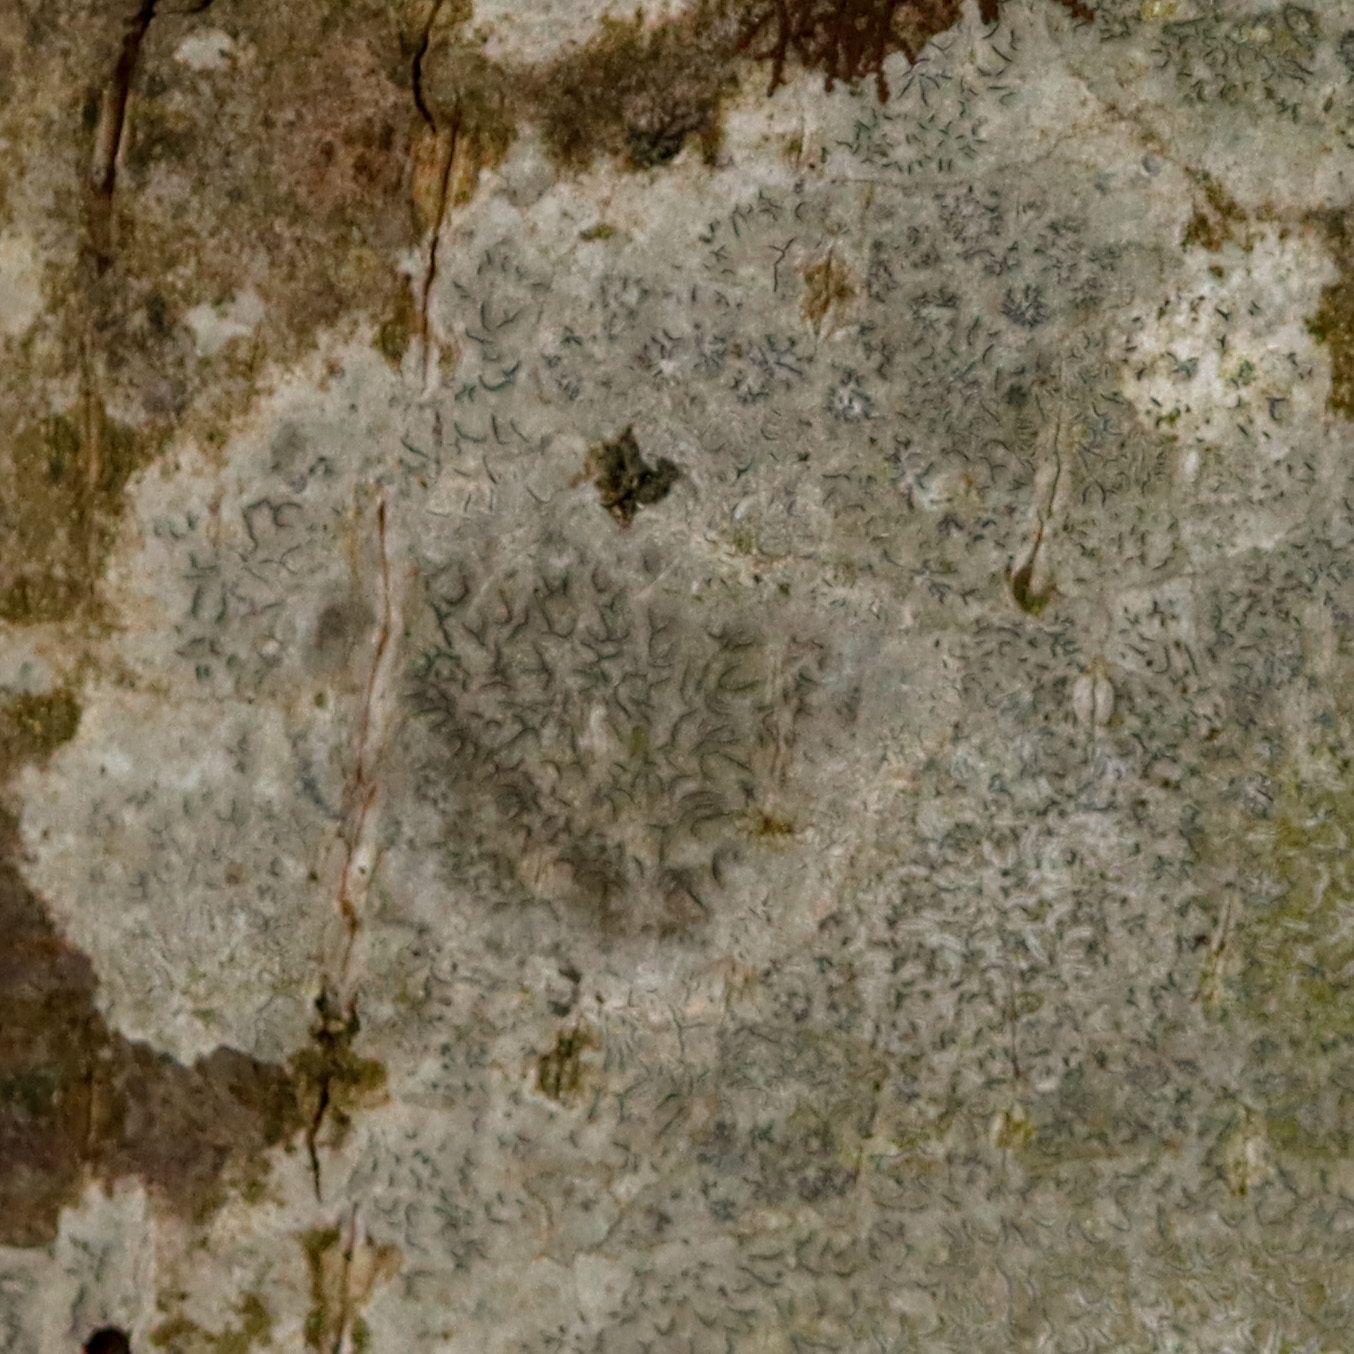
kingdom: Fungi
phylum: Ascomycota
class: Lecanoromycetes
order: Ostropales
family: Graphidaceae
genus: Graphis
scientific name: Graphis scripta
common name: Script lichen
